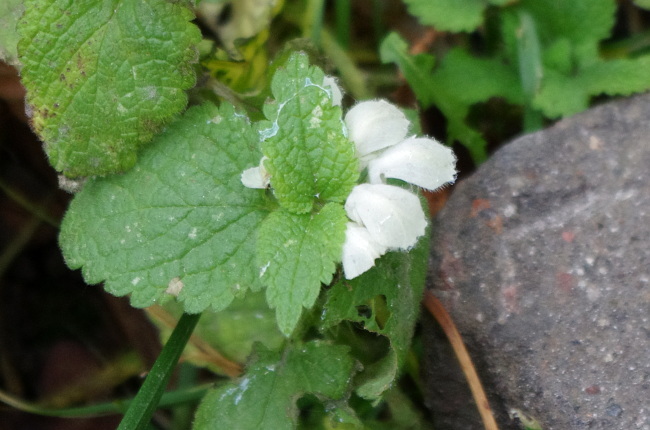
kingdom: Plantae
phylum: Tracheophyta
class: Magnoliopsida
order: Lamiales
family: Lamiaceae
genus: Lamium
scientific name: Lamium album
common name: White dead-nettle
